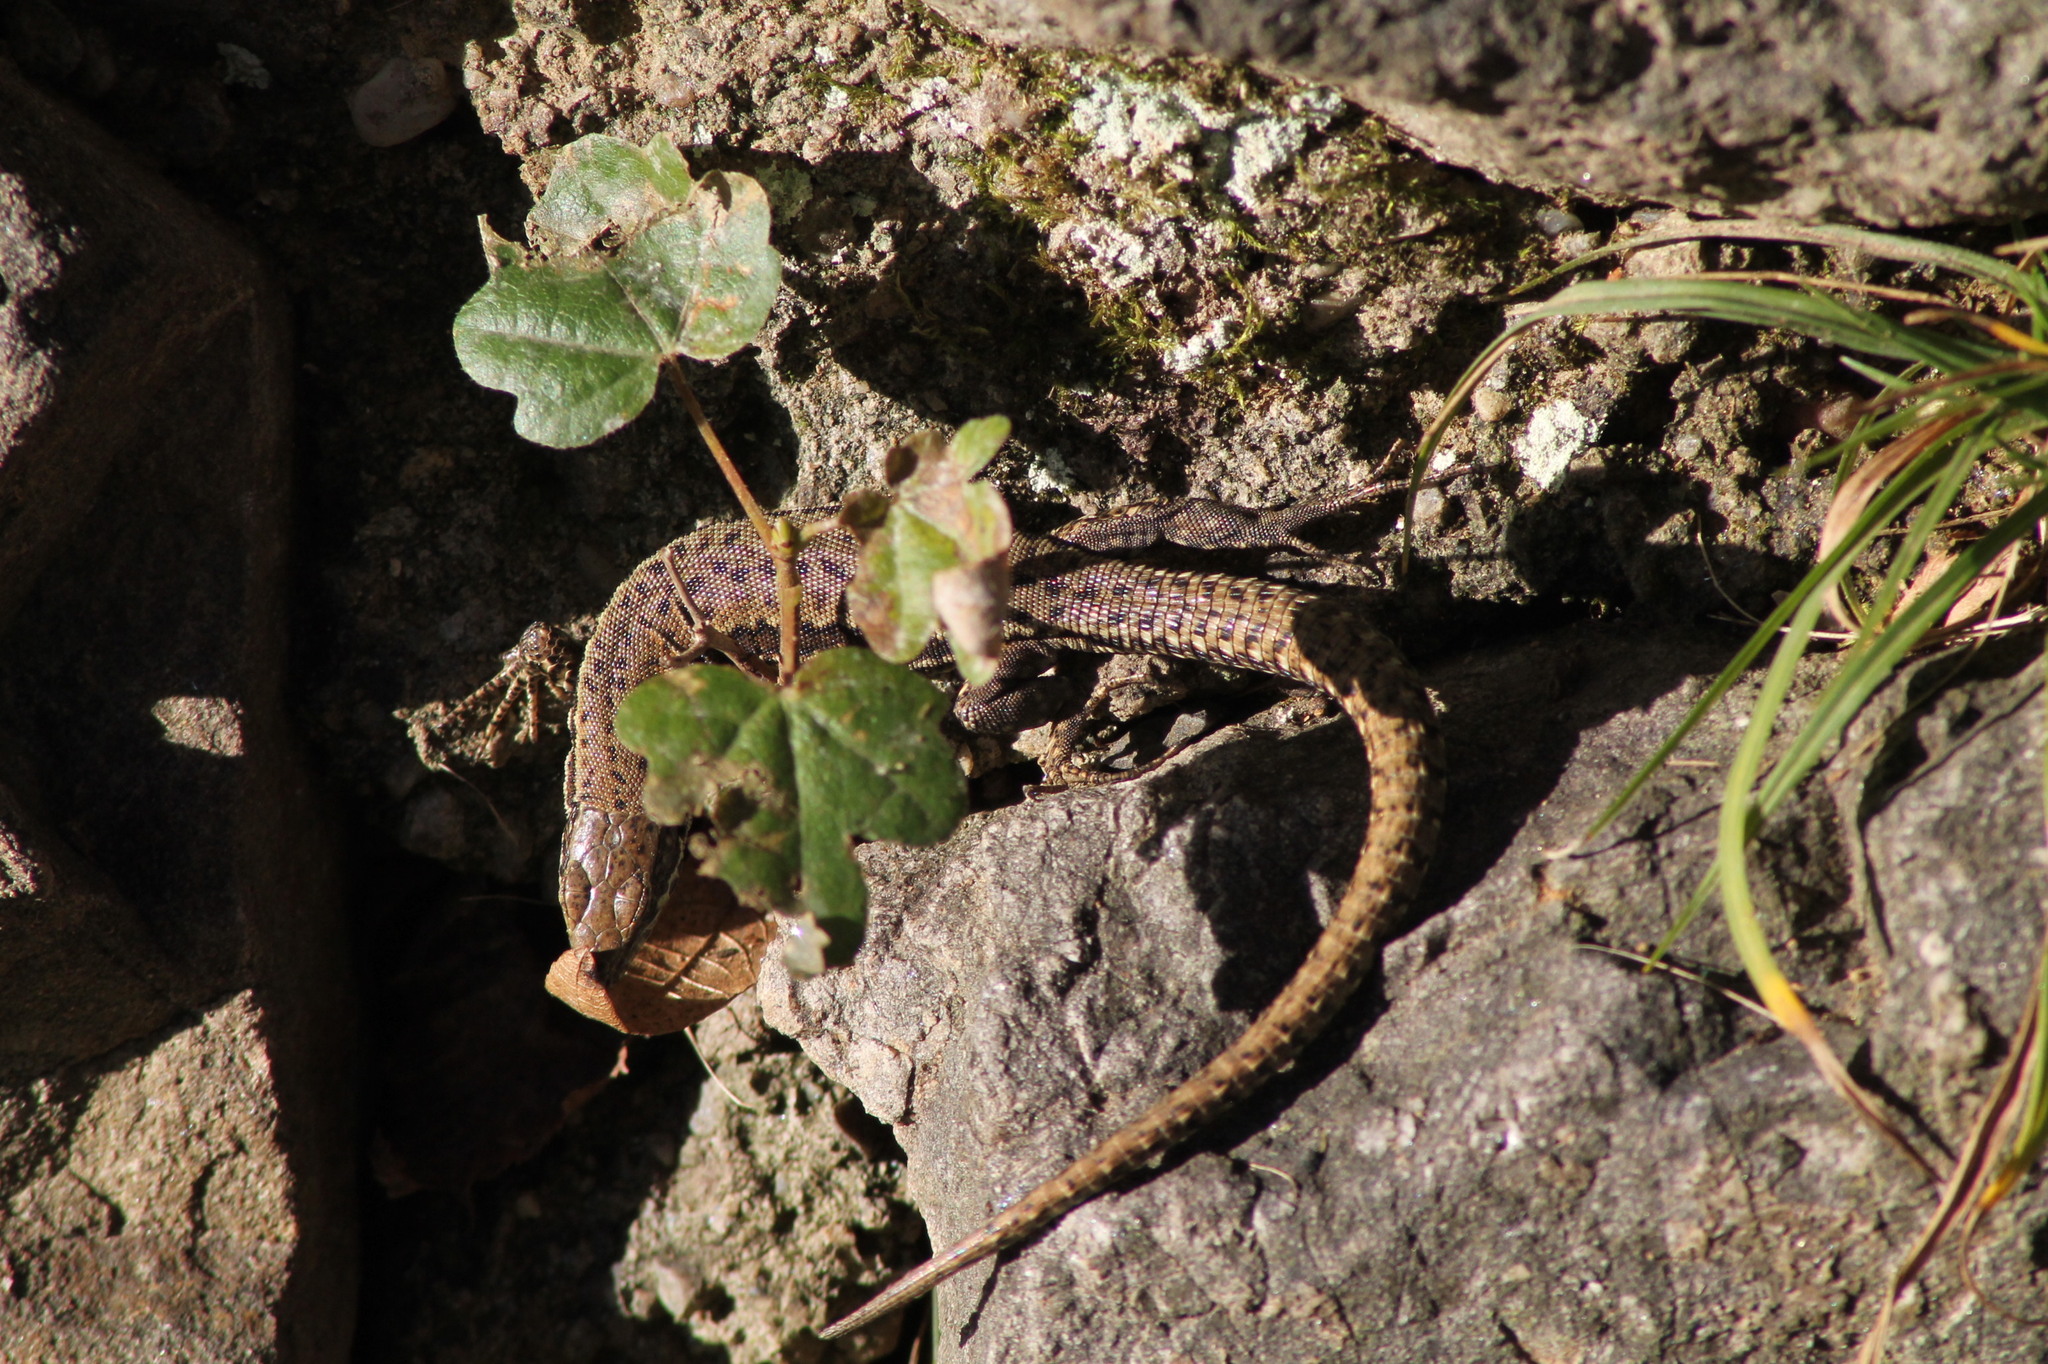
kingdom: Animalia
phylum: Chordata
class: Squamata
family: Lacertidae
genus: Podarcis
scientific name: Podarcis muralis
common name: Common wall lizard
